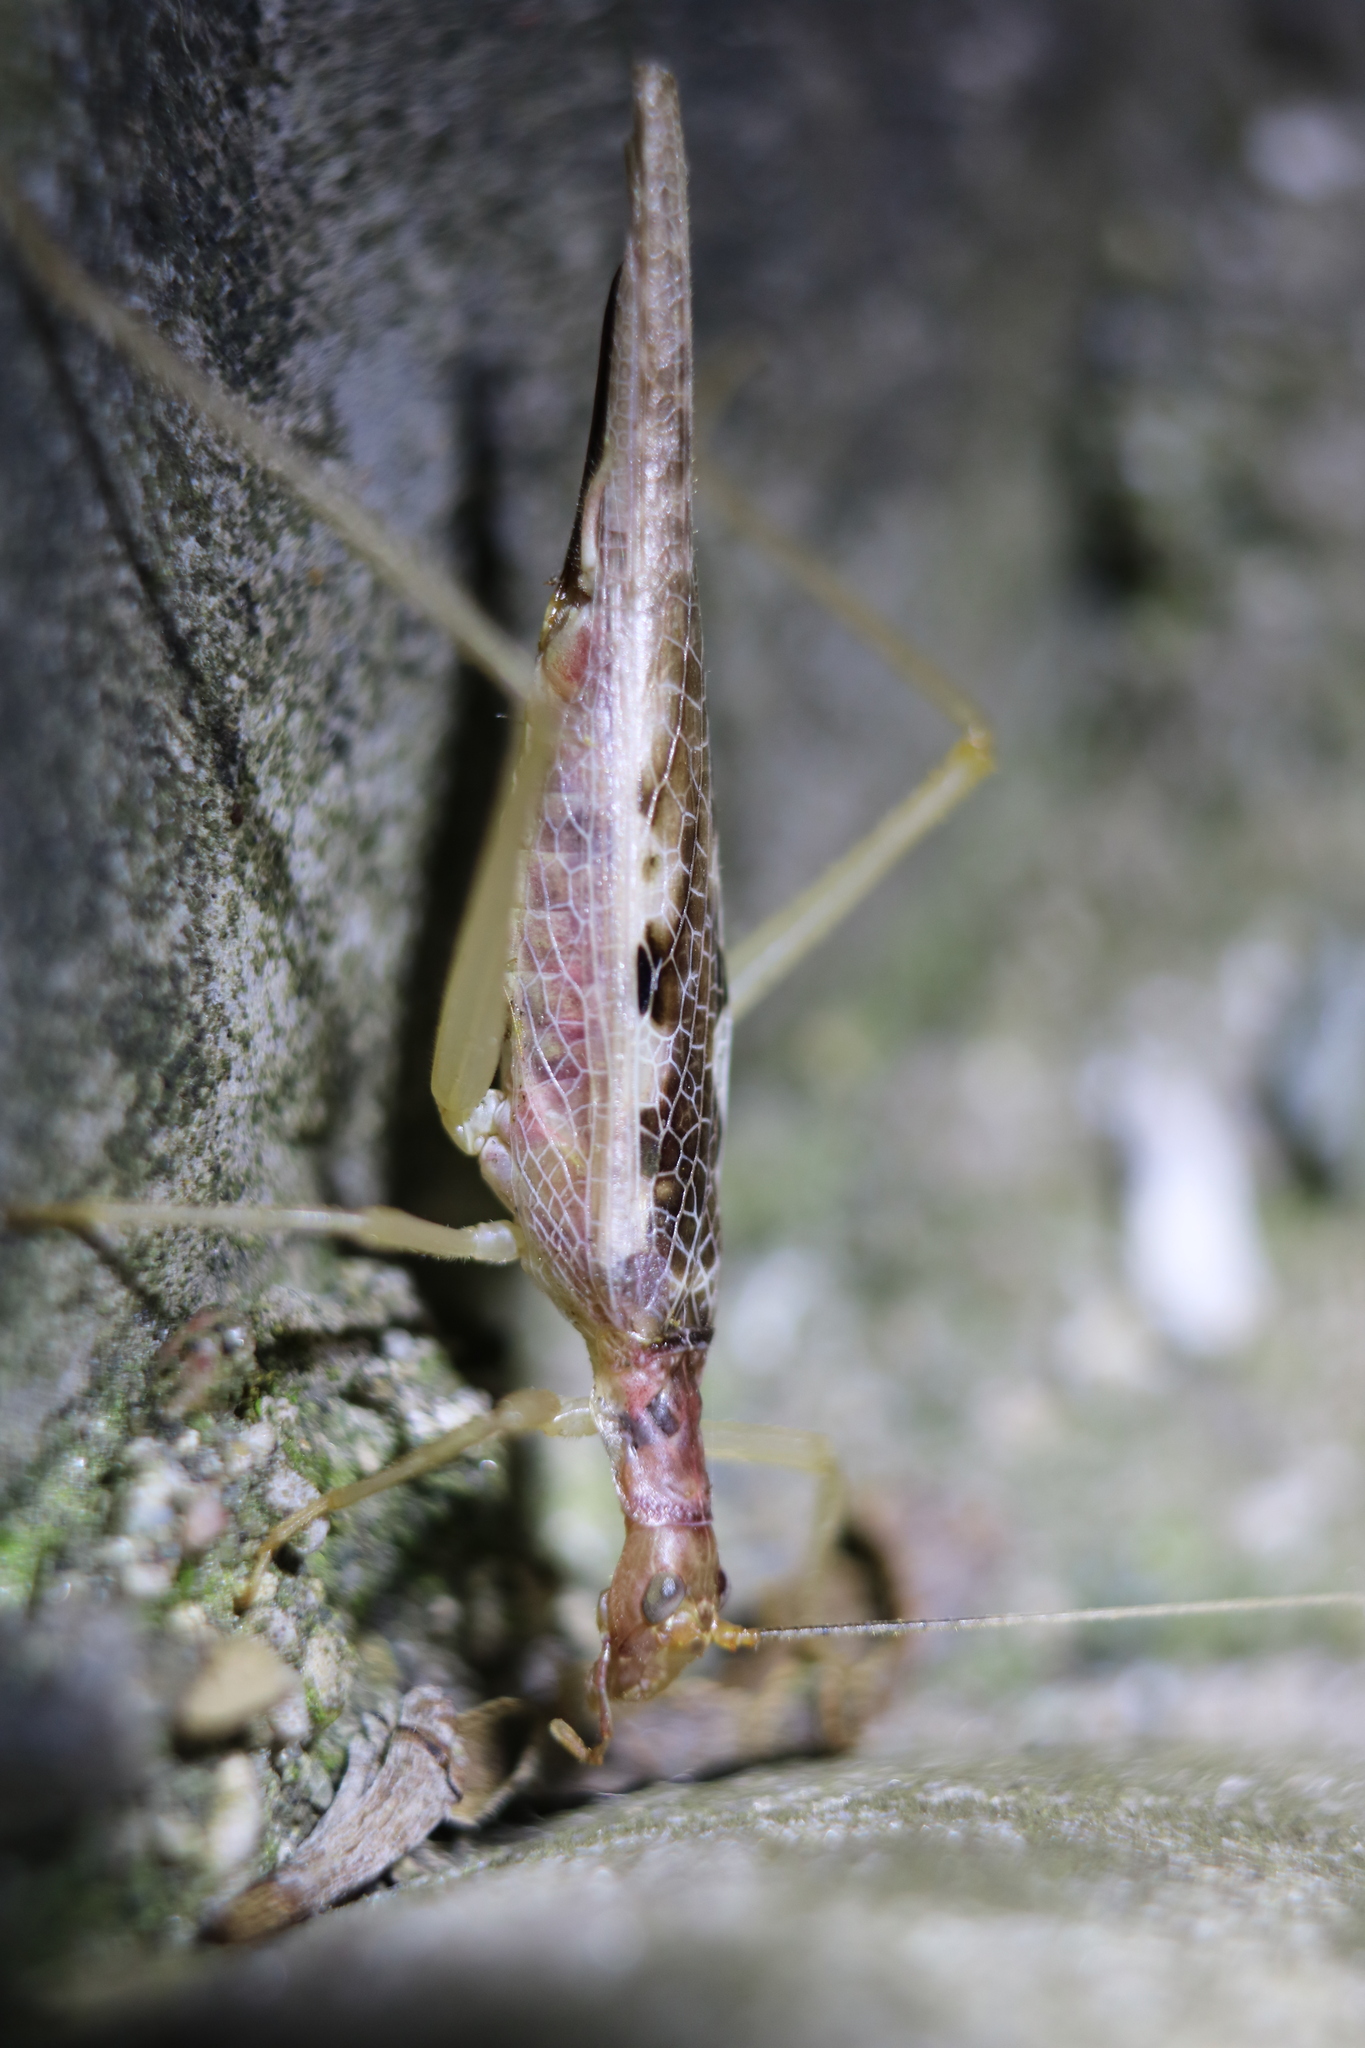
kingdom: Animalia
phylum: Arthropoda
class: Insecta
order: Orthoptera
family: Gryllidae
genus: Neoxabea
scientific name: Neoxabea bipunctata
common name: Two-spotted tree cricket
